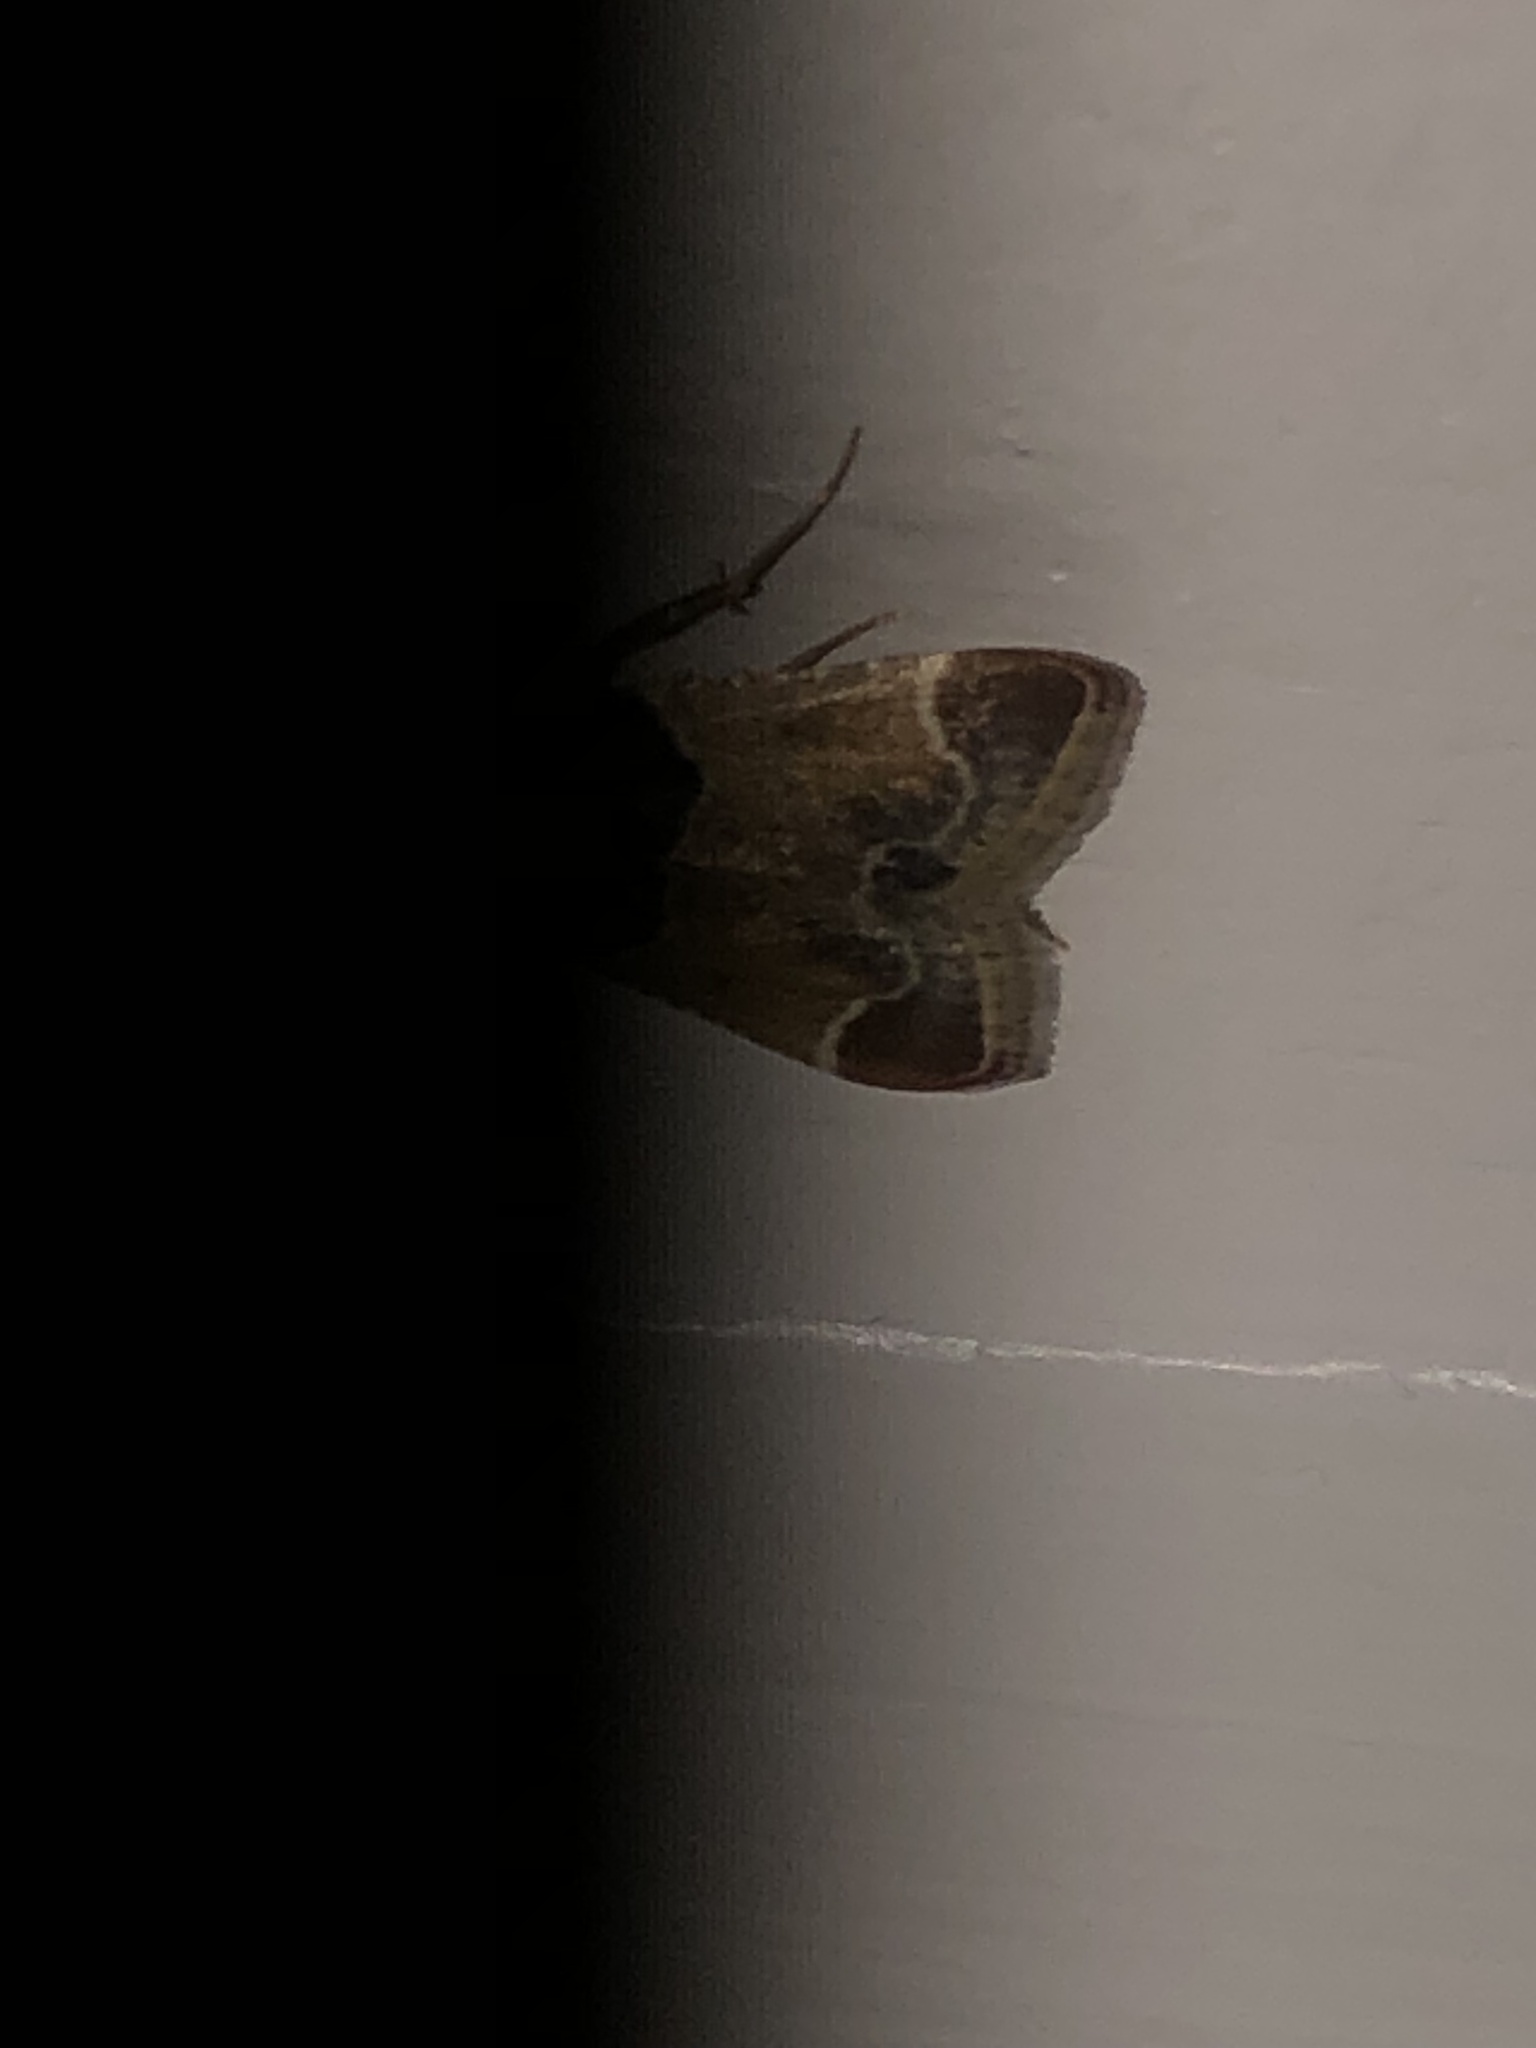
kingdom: Animalia
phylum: Arthropoda
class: Insecta
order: Lepidoptera
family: Pyralidae
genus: Pyralis
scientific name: Pyralis farinalis
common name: Meal moth
